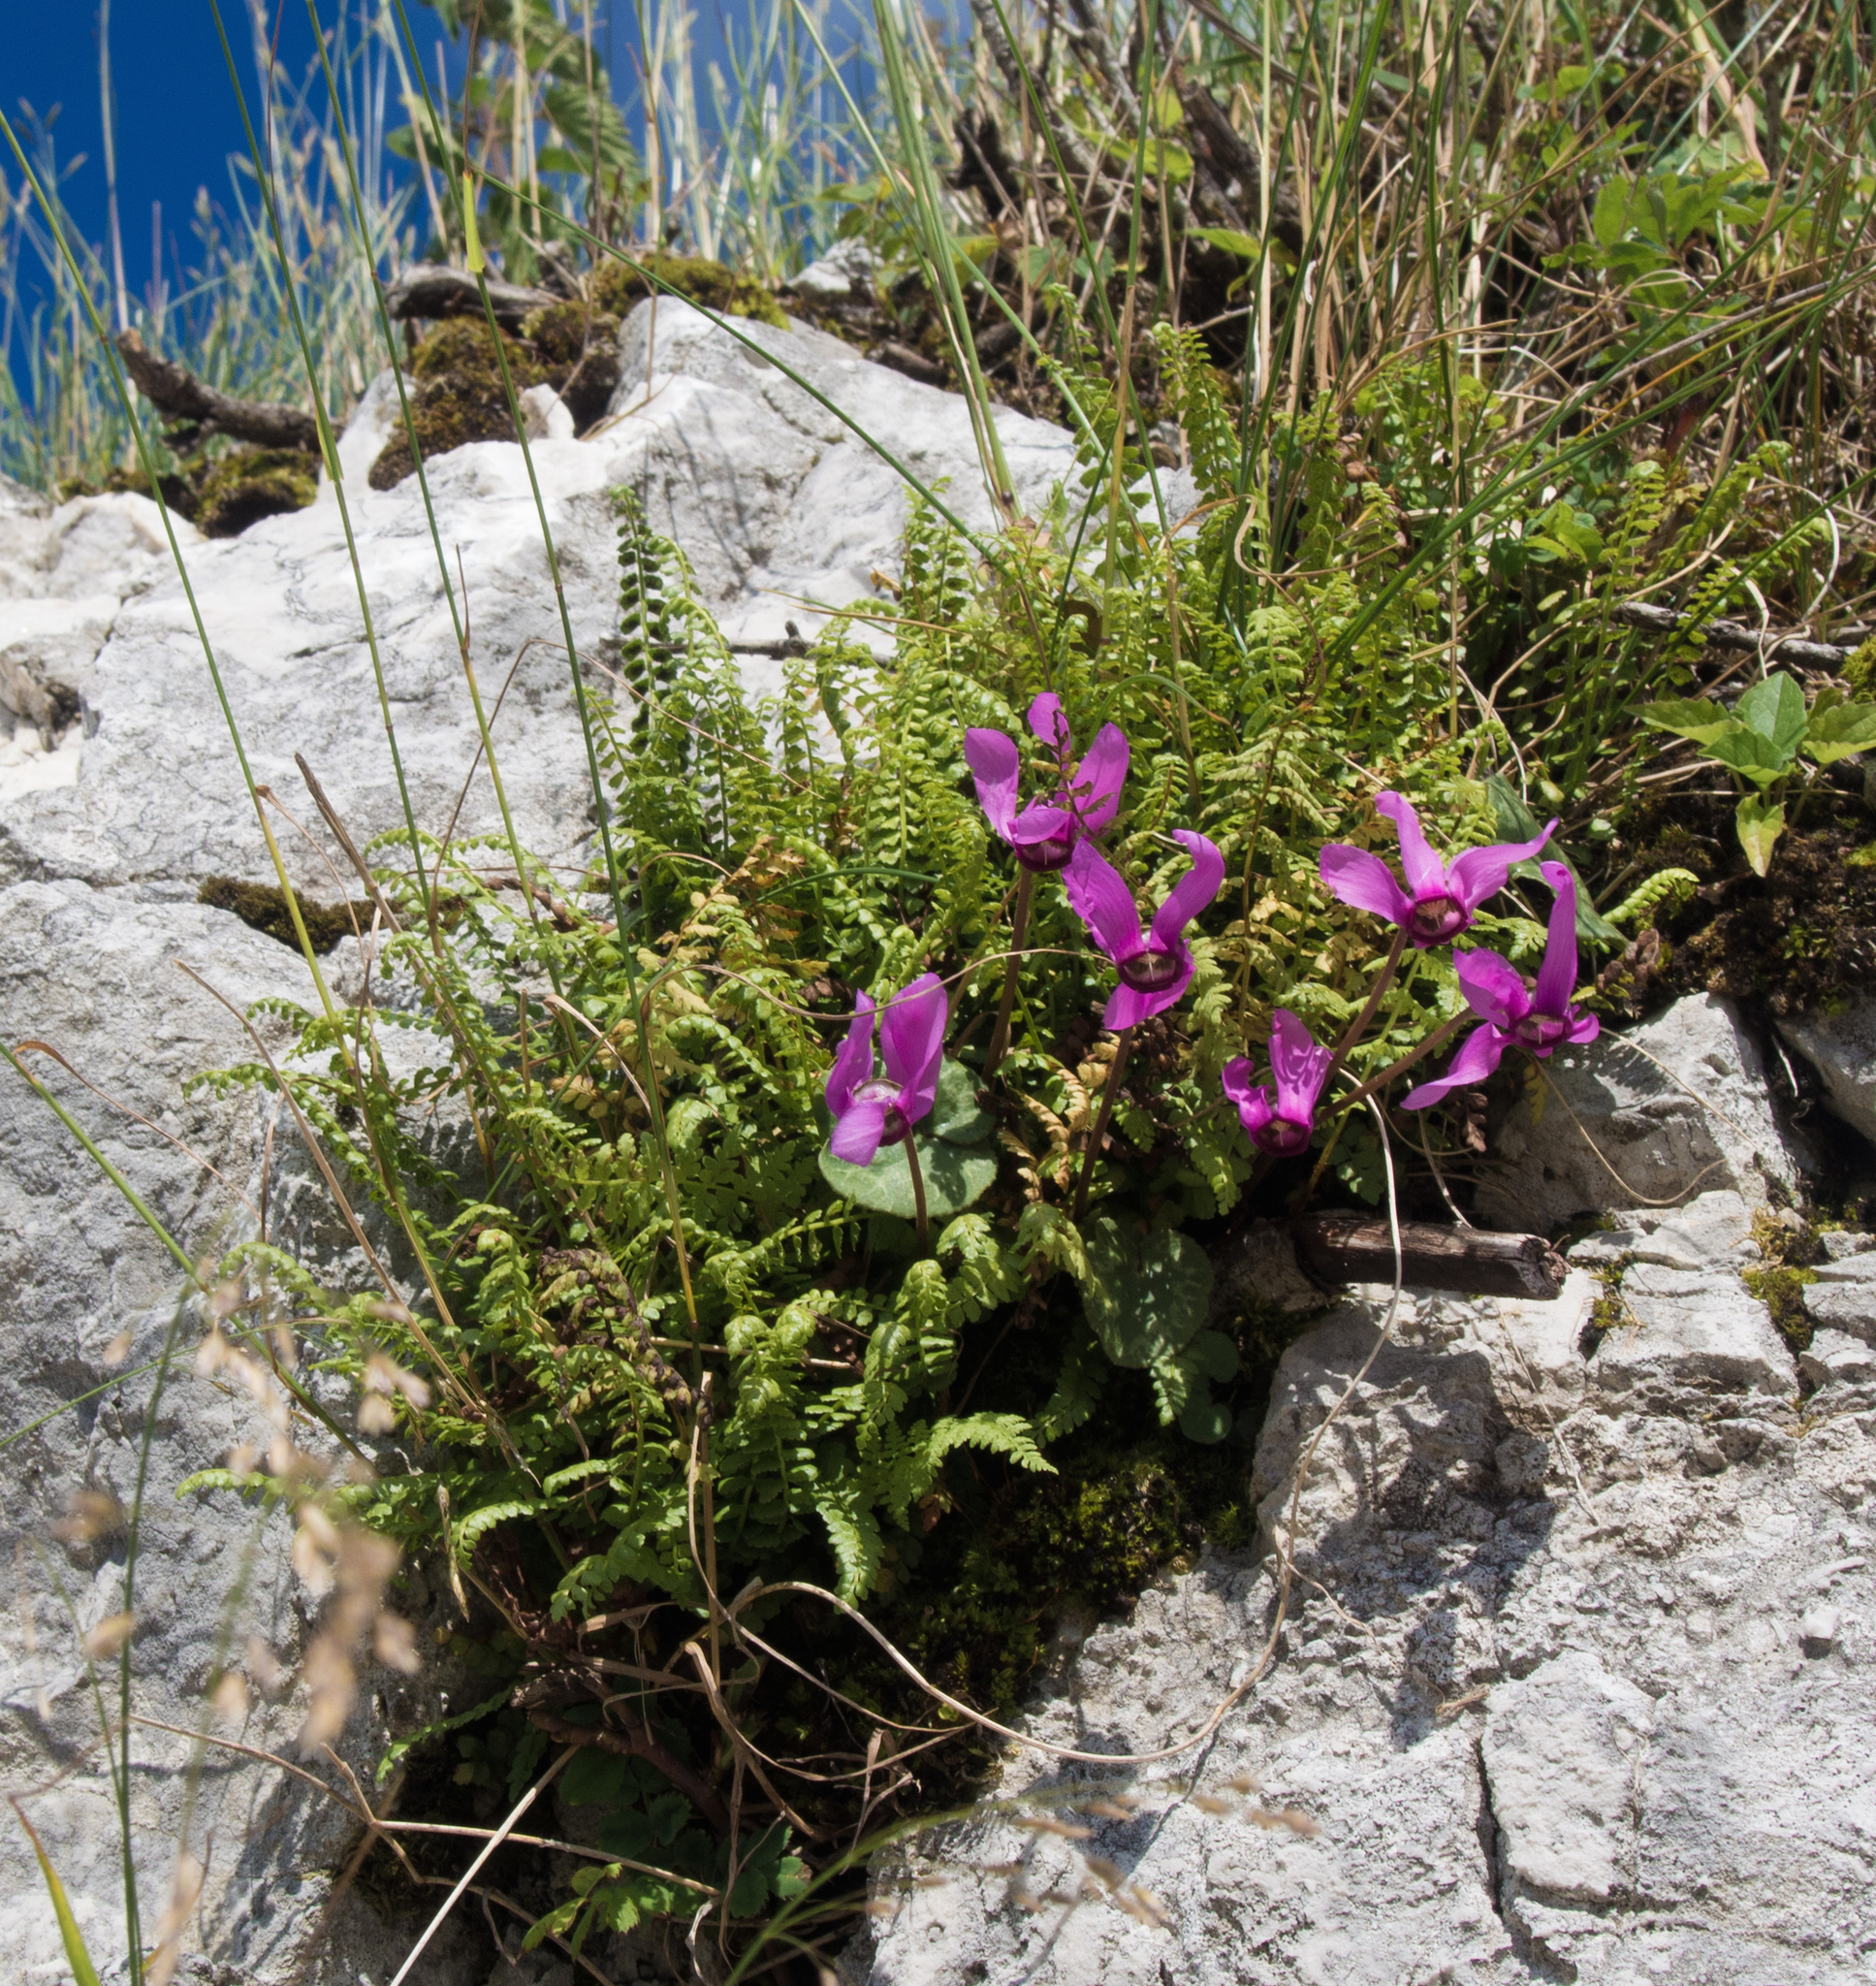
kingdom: Plantae
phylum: Tracheophyta
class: Polypodiopsida
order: Polypodiales
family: Aspleniaceae
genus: Asplenium
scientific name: Asplenium viride
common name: Green spleenwort
